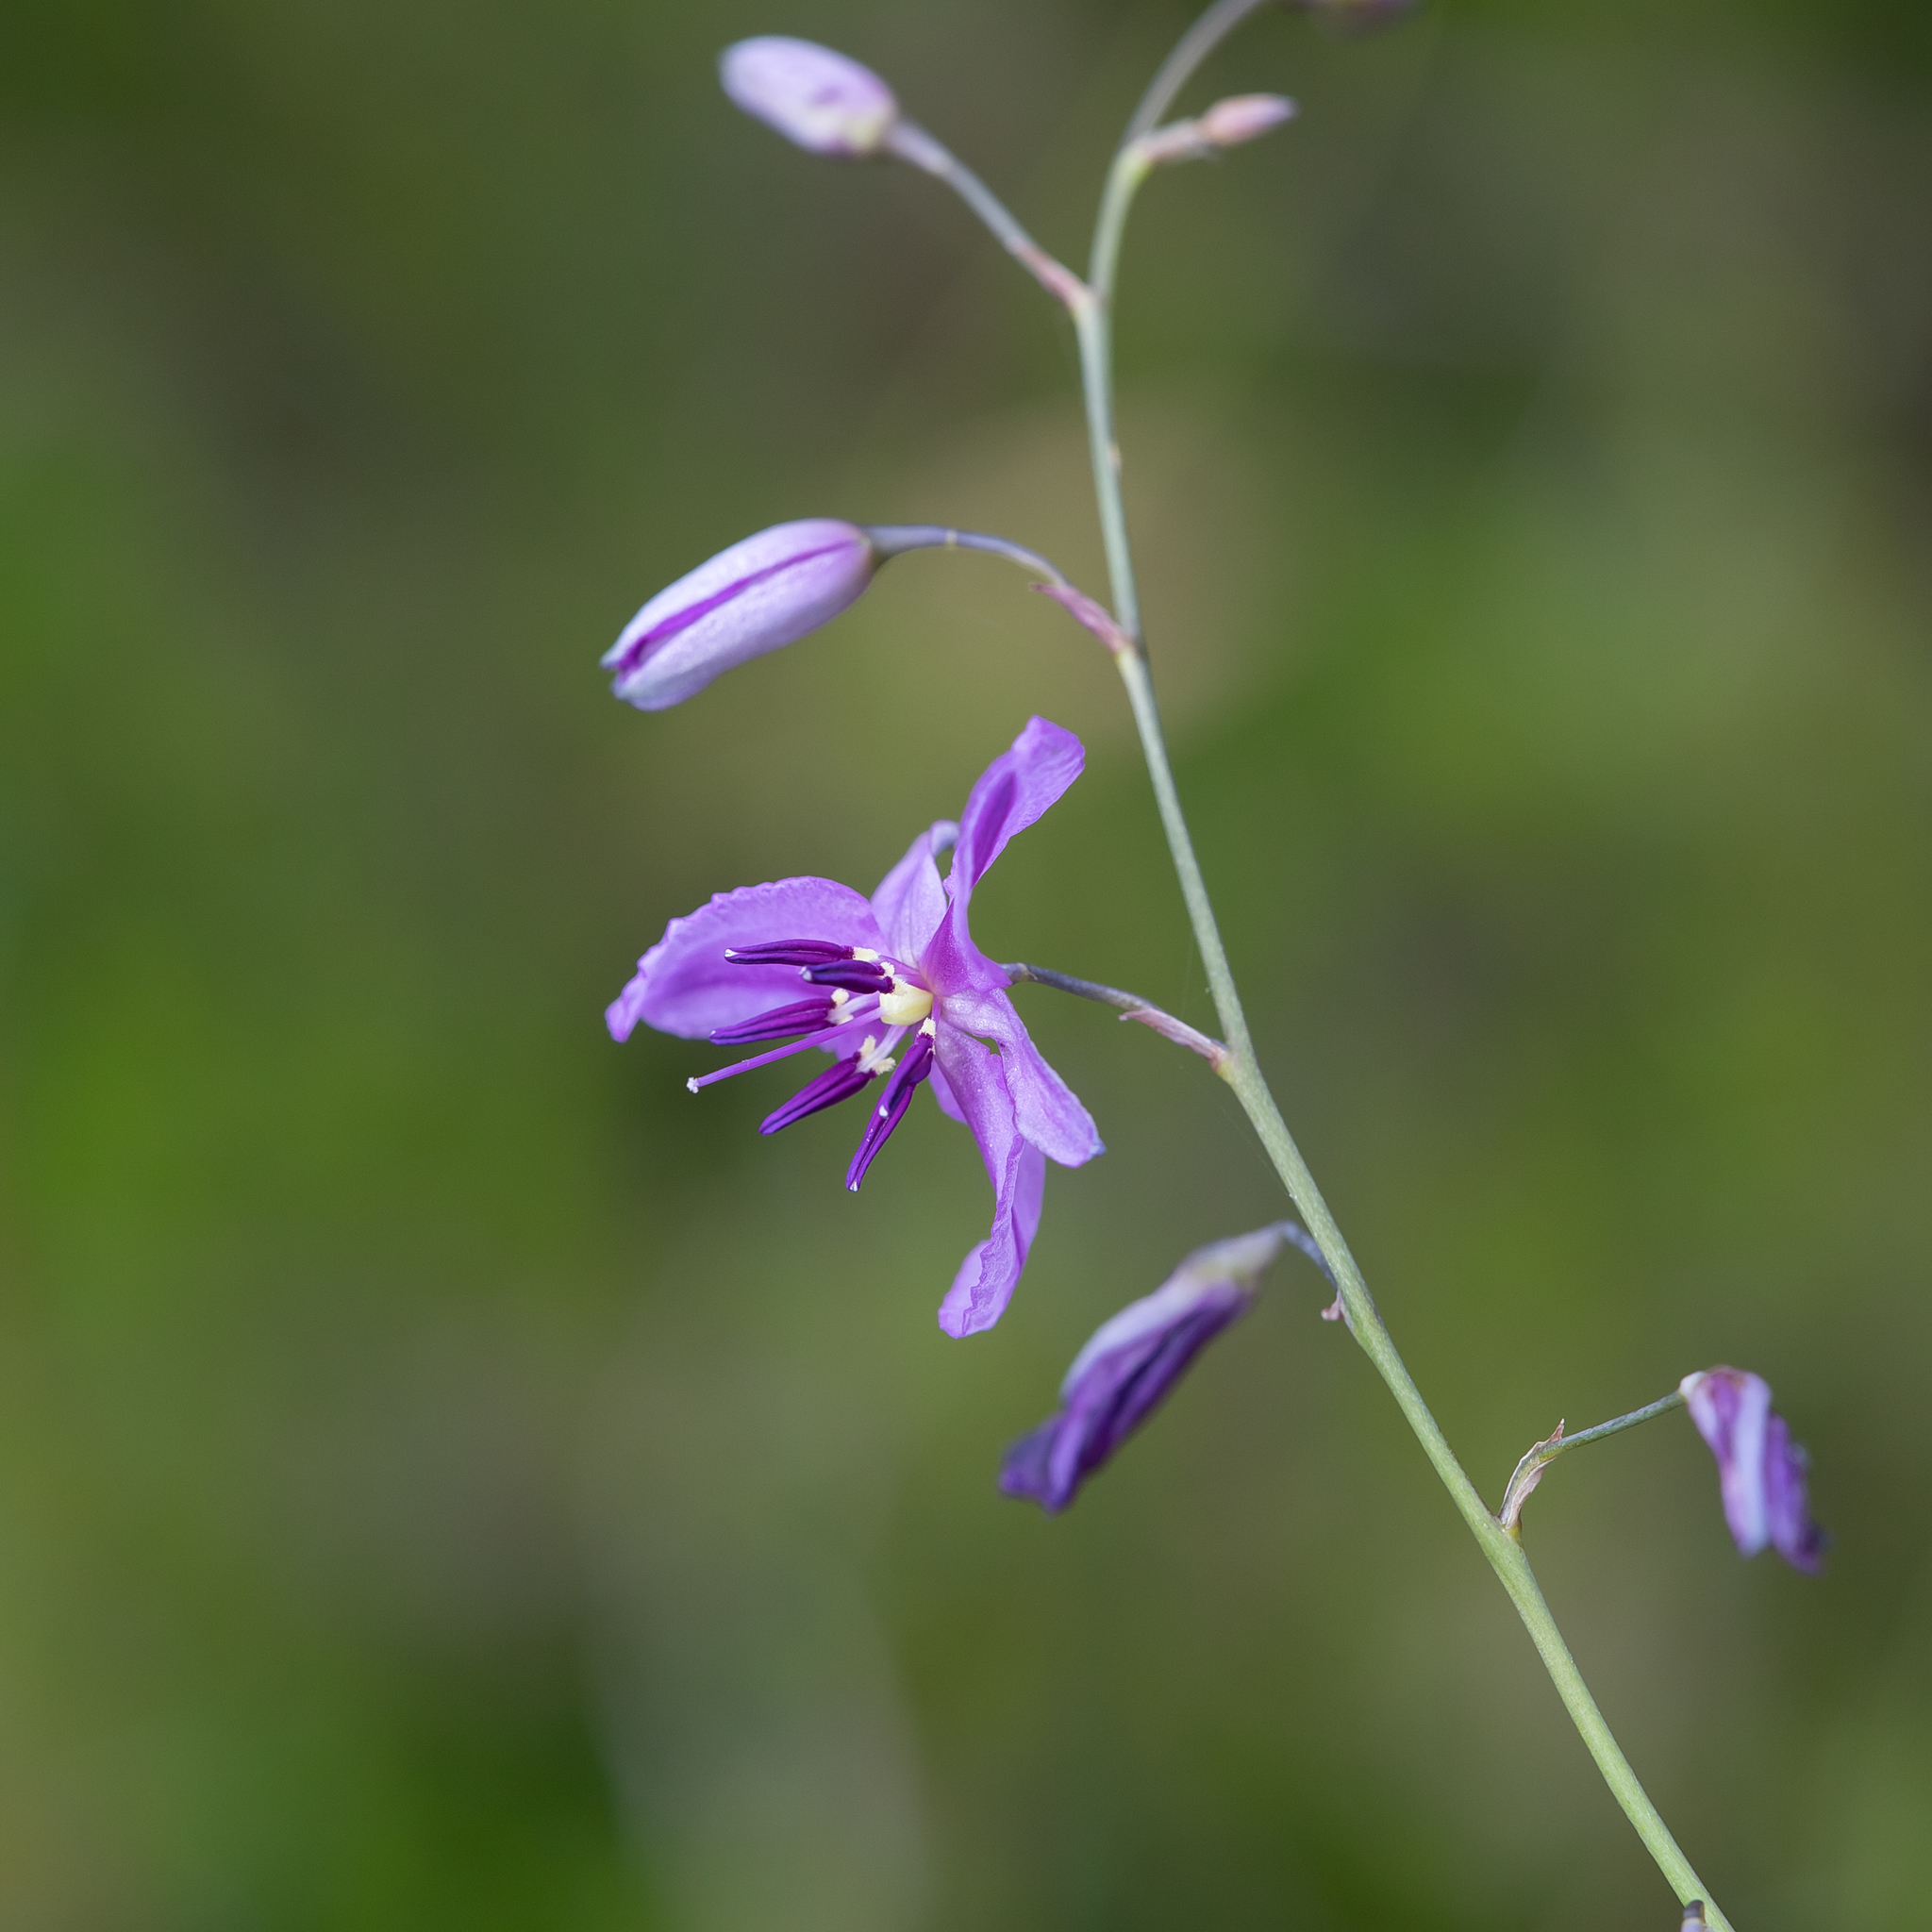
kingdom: Plantae
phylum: Tracheophyta
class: Liliopsida
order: Asparagales
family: Asparagaceae
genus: Arthropodium
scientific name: Arthropodium strictum
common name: Chocolate-lily
